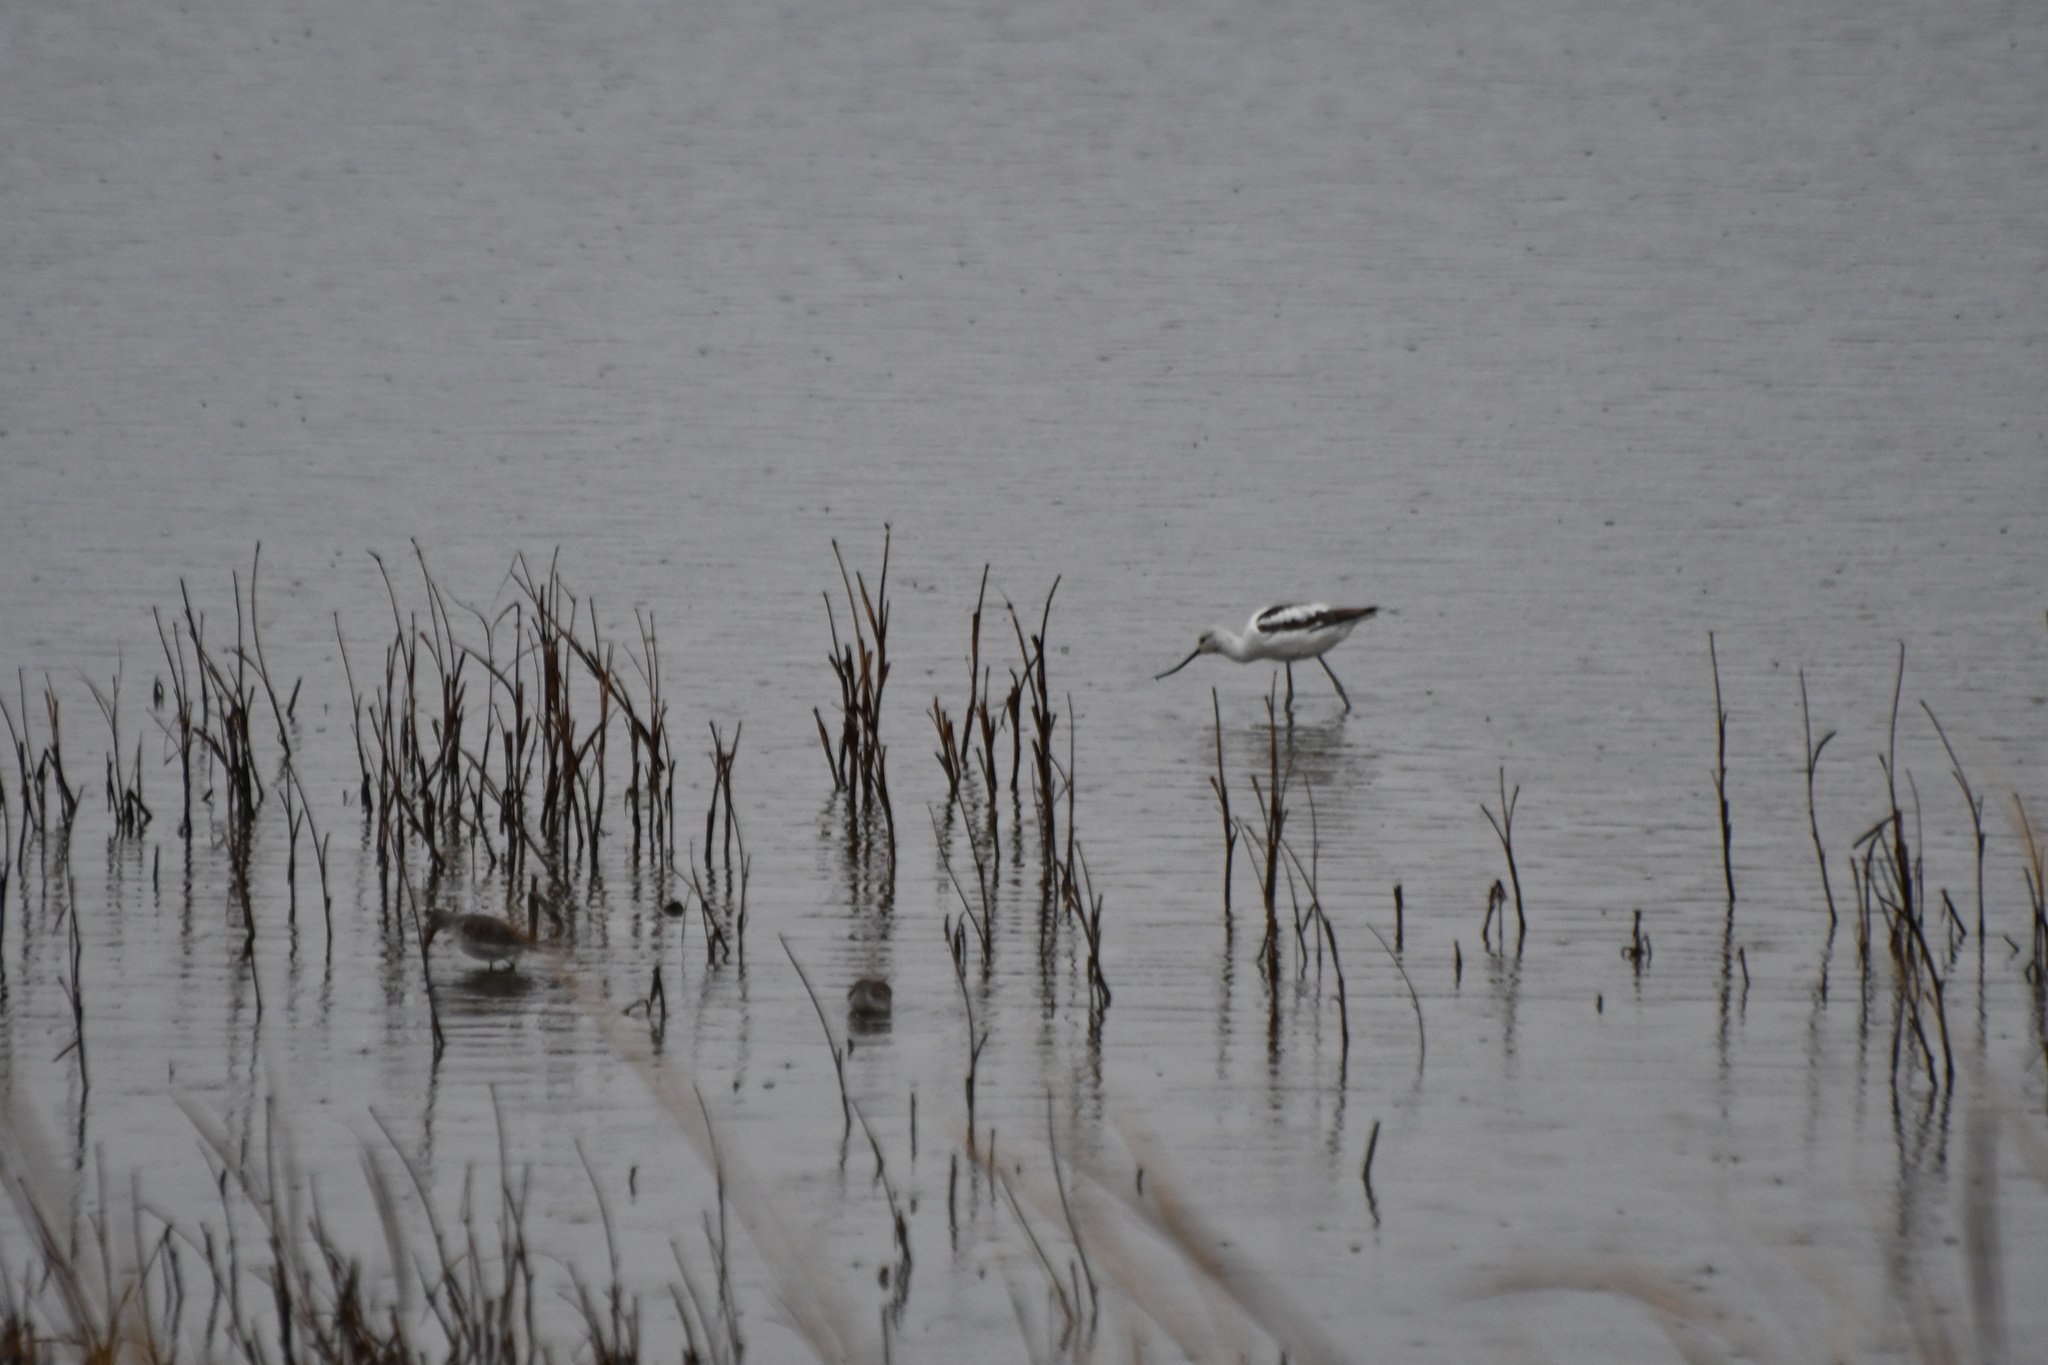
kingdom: Animalia
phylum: Chordata
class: Aves
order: Charadriiformes
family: Recurvirostridae
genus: Recurvirostra
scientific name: Recurvirostra americana
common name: American avocet
